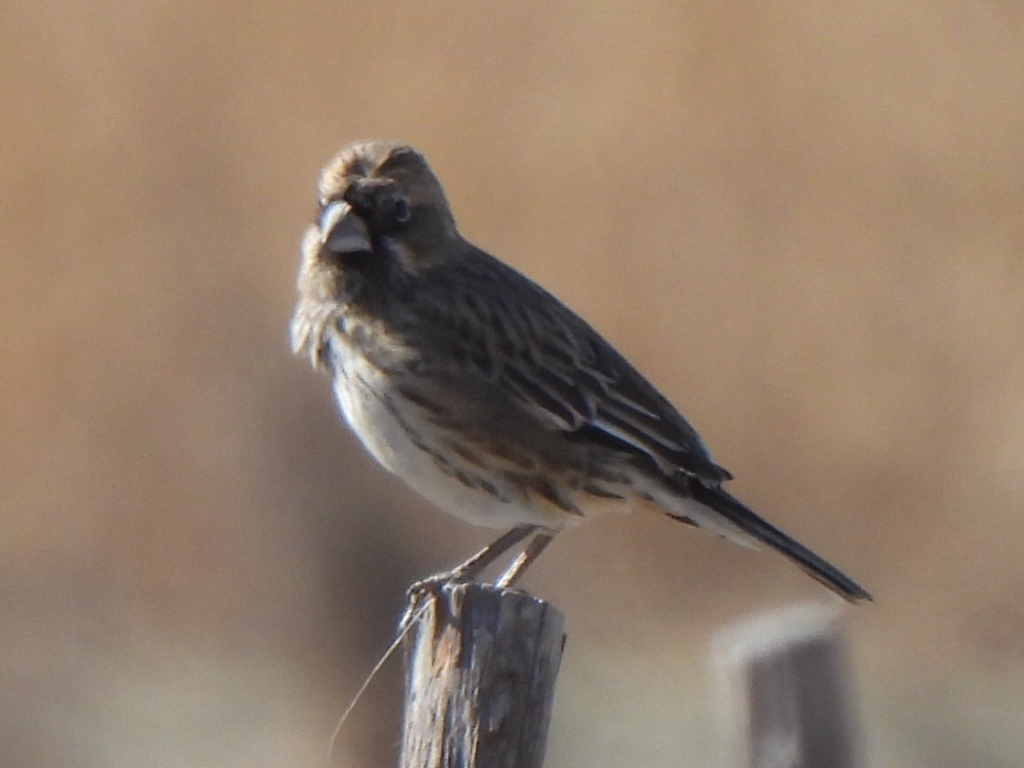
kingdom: Animalia
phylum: Chordata
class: Aves
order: Passeriformes
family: Passerellidae
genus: Calamospiza
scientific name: Calamospiza melanocorys
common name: Lark bunting
